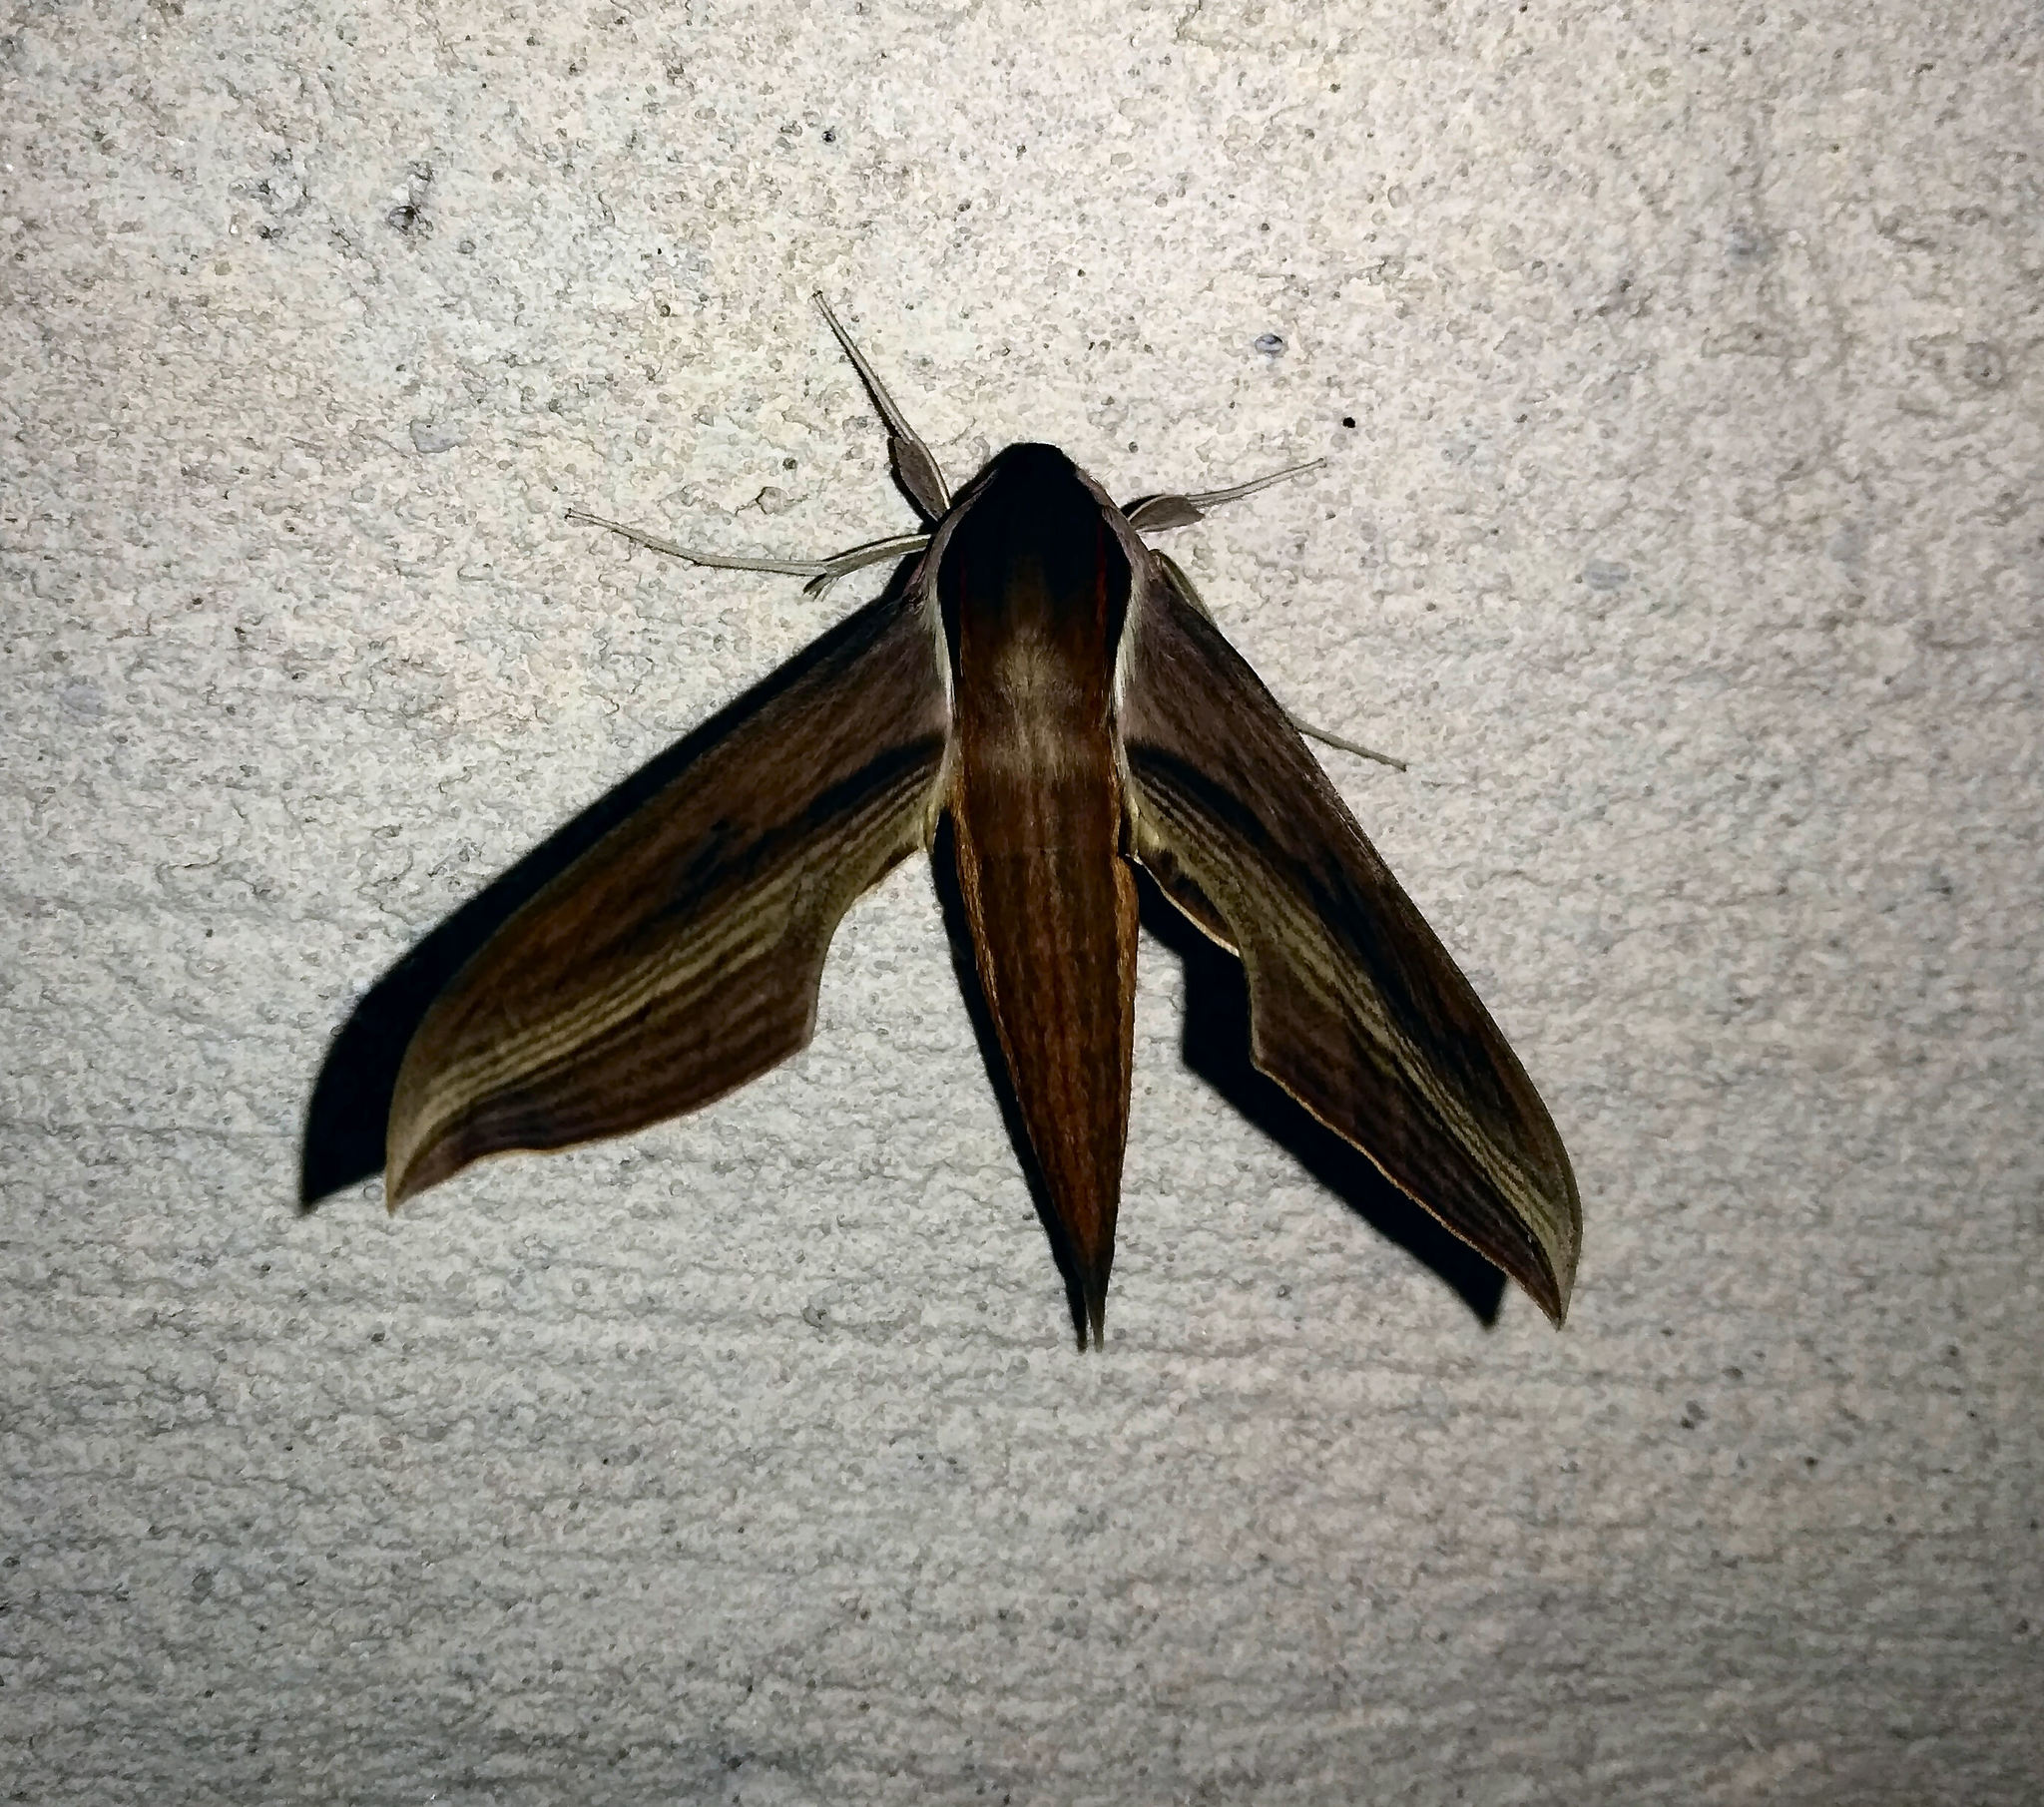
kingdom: Animalia
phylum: Arthropoda
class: Insecta
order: Lepidoptera
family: Sphingidae
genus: Xylophanes
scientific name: Xylophanes tersa
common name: Tersa sphinx
